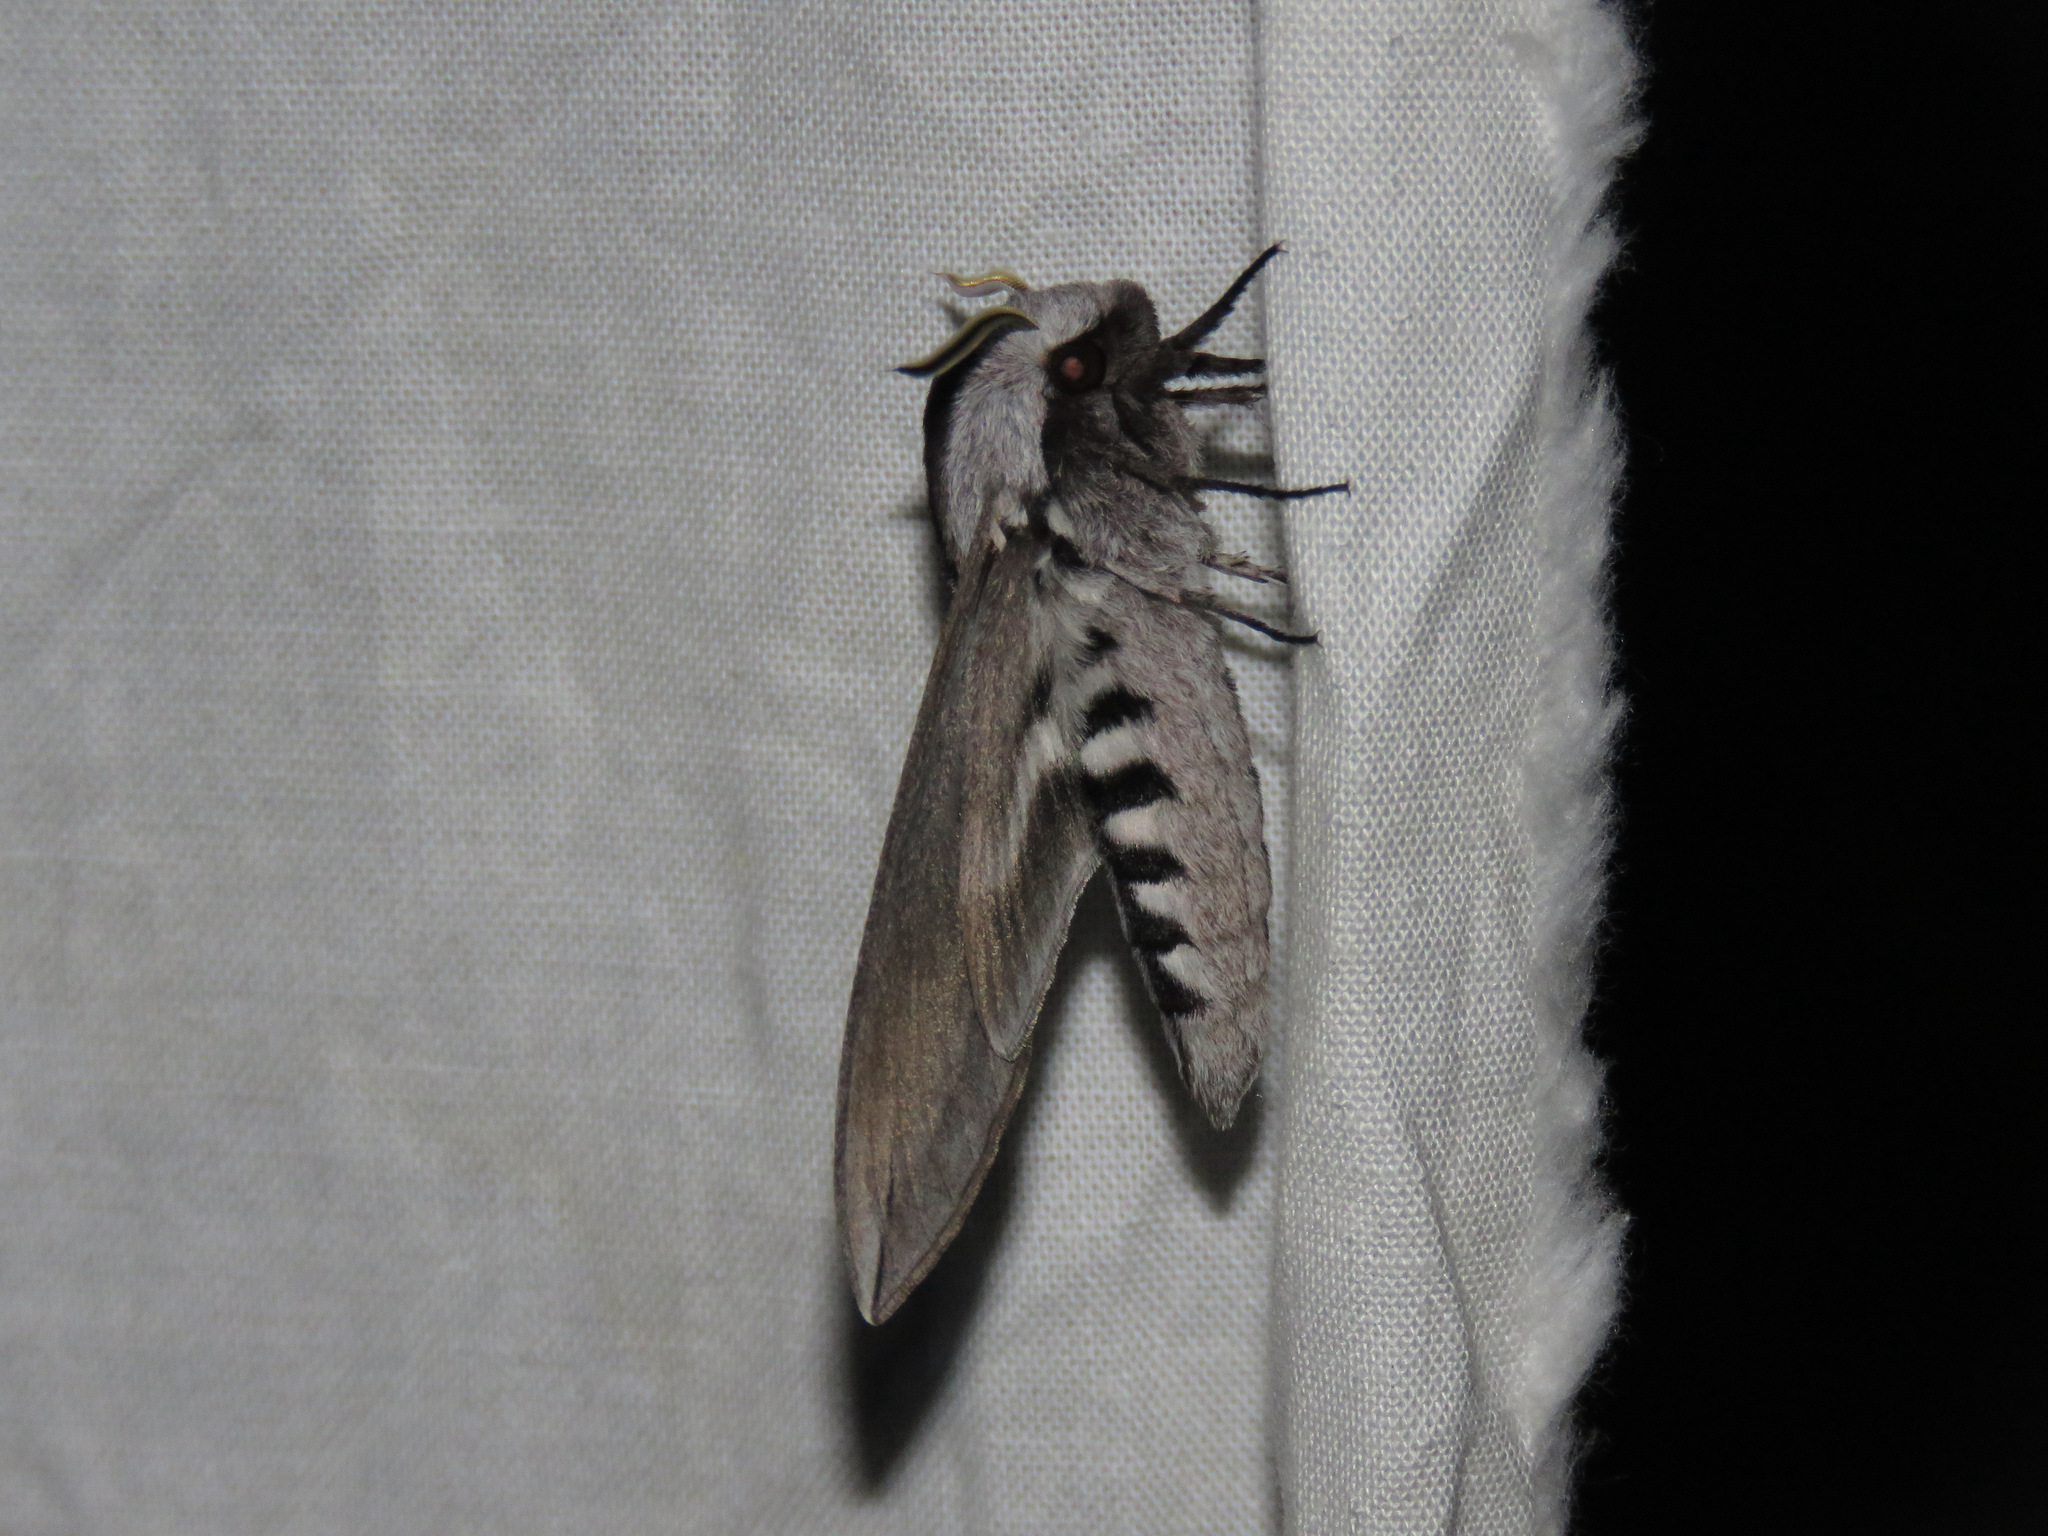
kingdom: Animalia
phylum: Arthropoda
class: Insecta
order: Lepidoptera
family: Sphingidae
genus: Sphinx
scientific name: Sphinx vashti
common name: Snowberry sphinx
